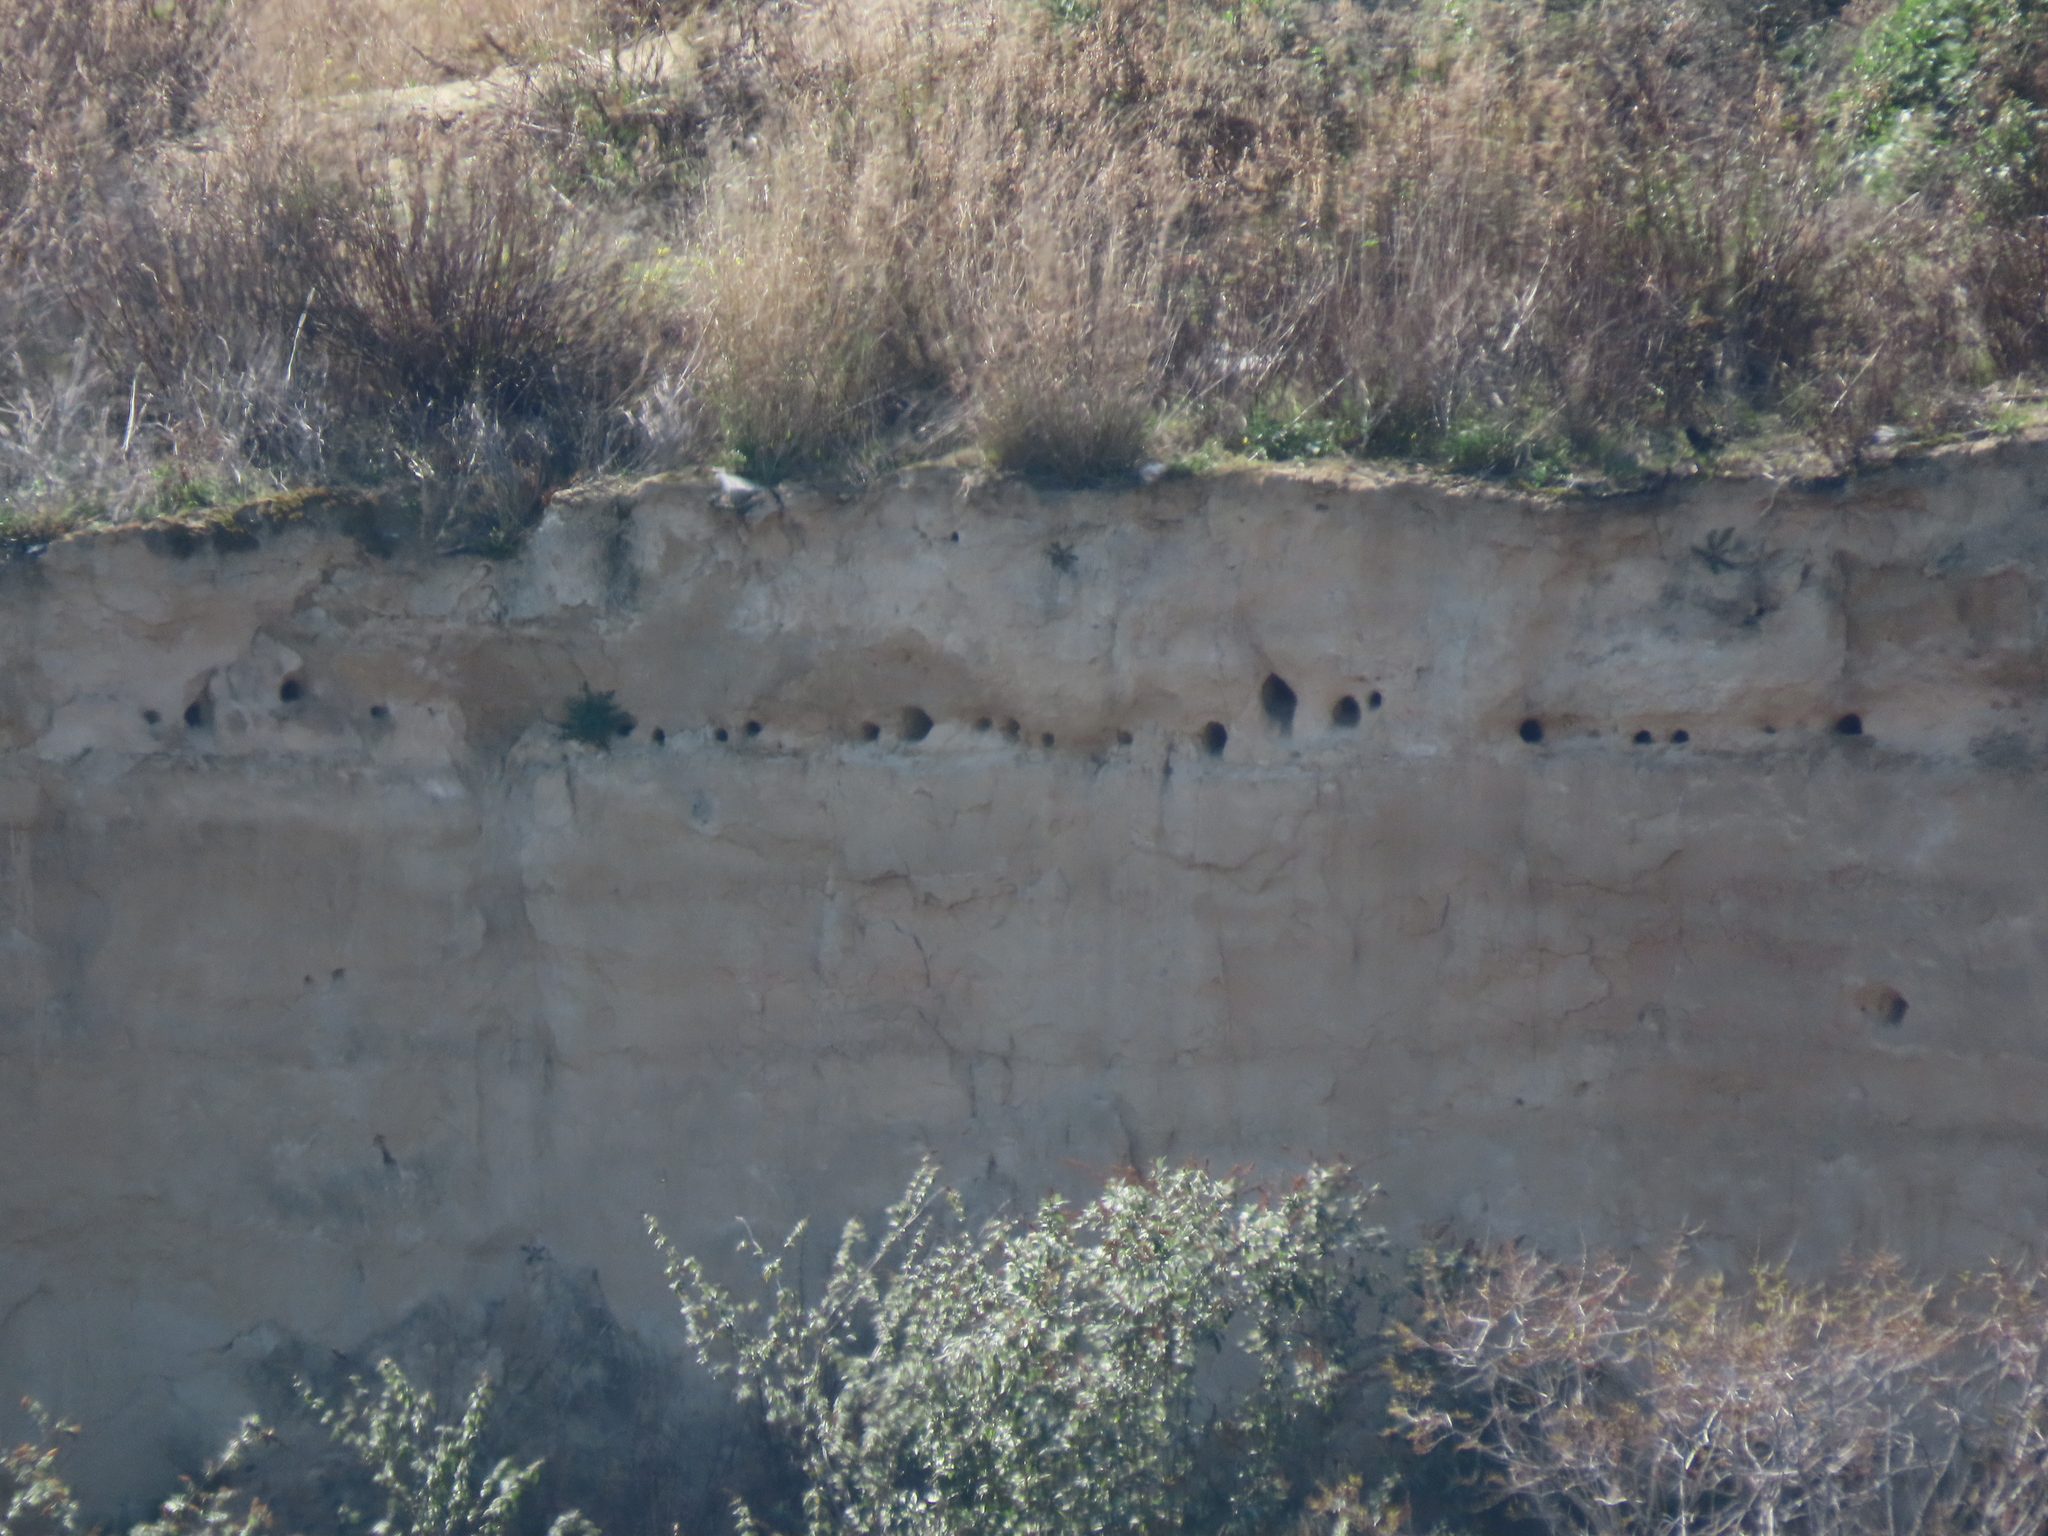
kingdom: Animalia
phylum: Chordata
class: Aves
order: Coraciiformes
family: Meropidae
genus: Merops
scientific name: Merops apiaster
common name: European bee-eater
